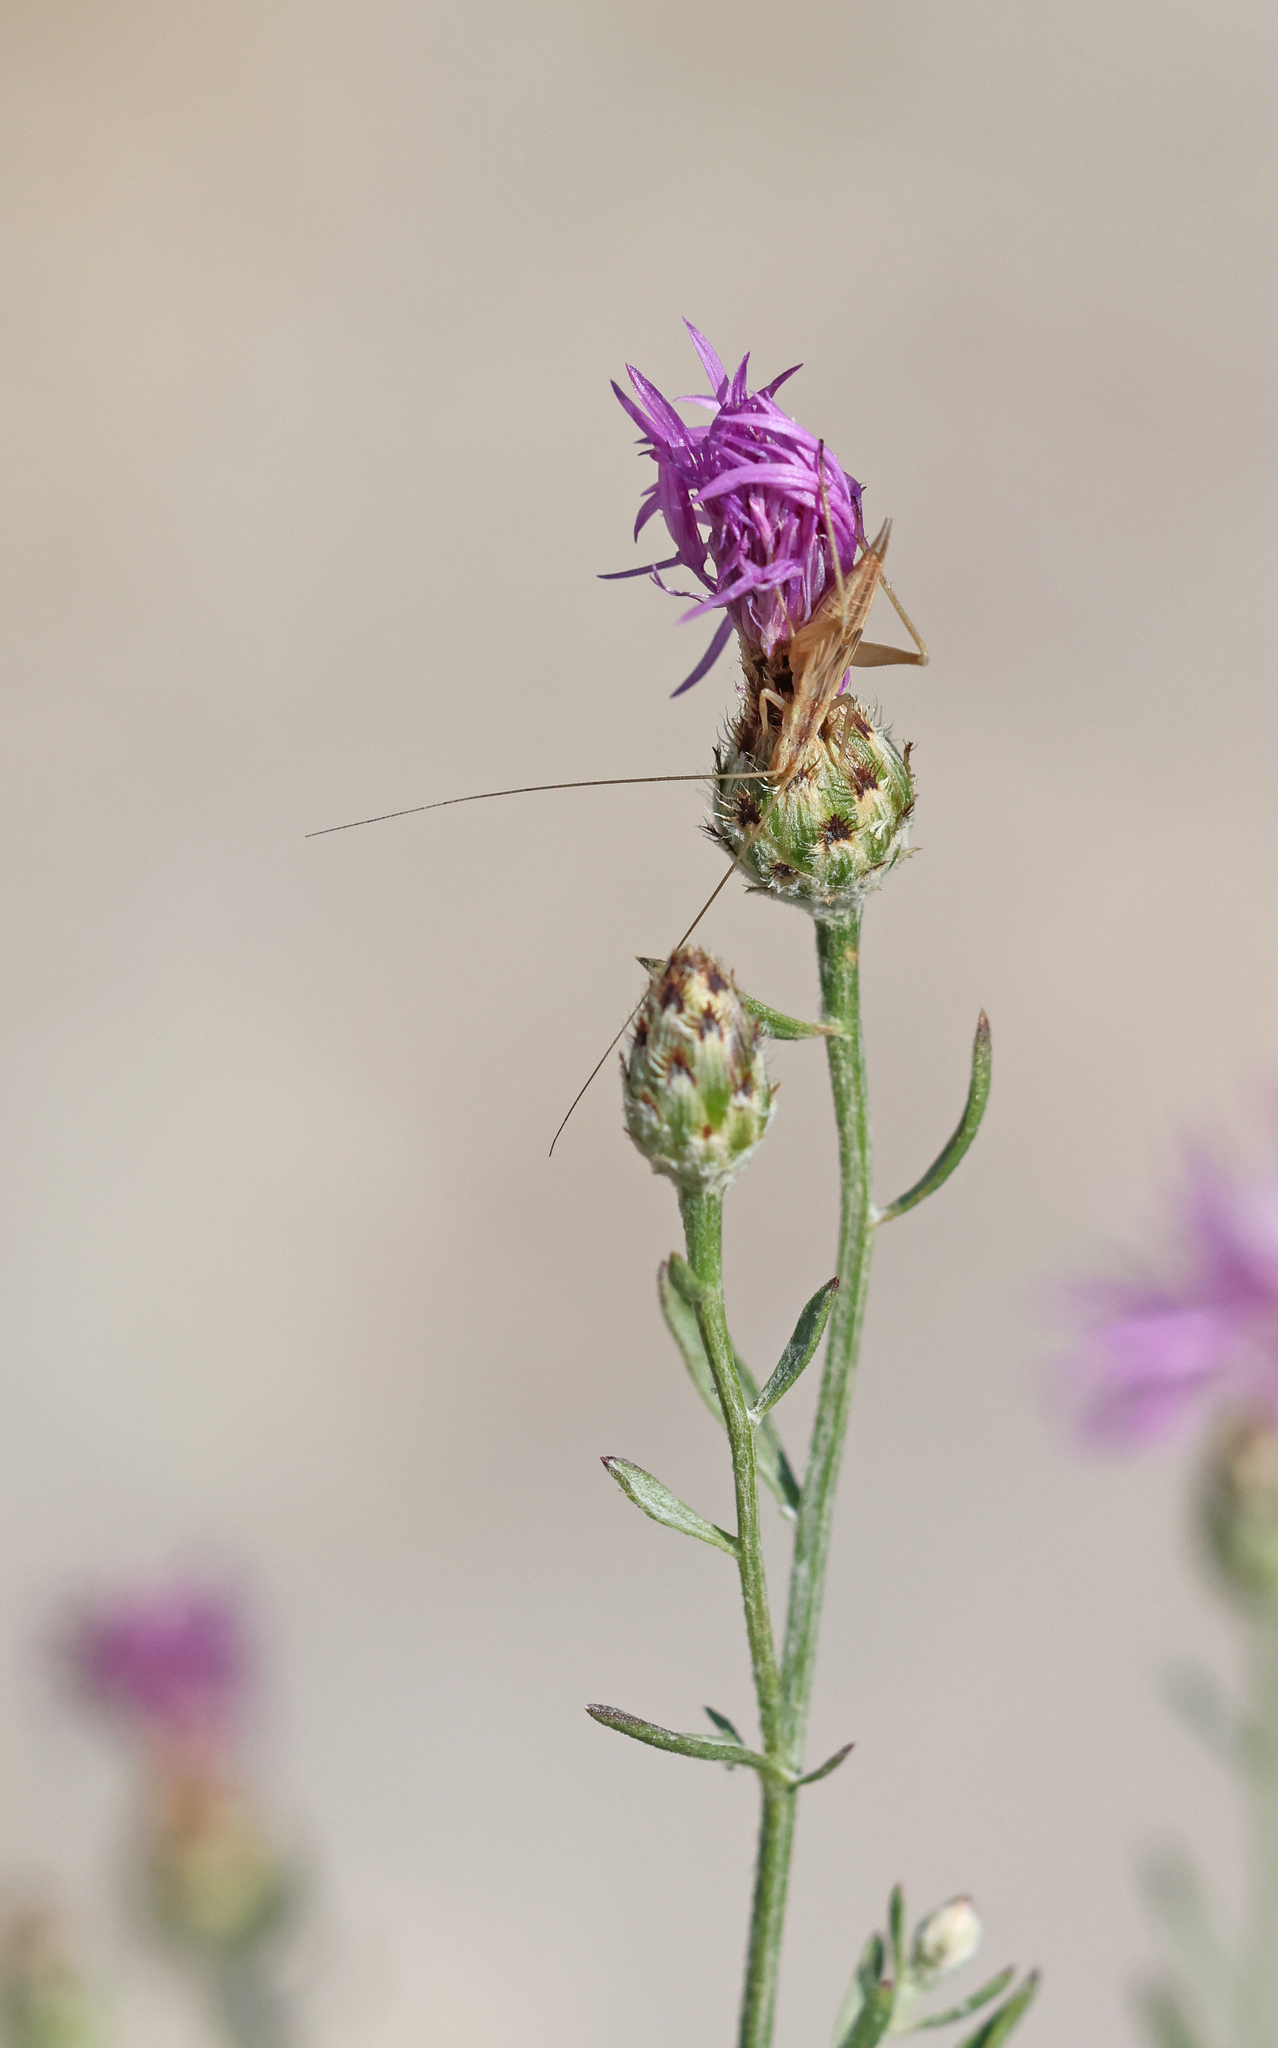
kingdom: Animalia
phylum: Arthropoda
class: Insecta
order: Orthoptera
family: Gryllidae
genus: Oecanthus
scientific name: Oecanthus pellucens
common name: Tree-cricket
